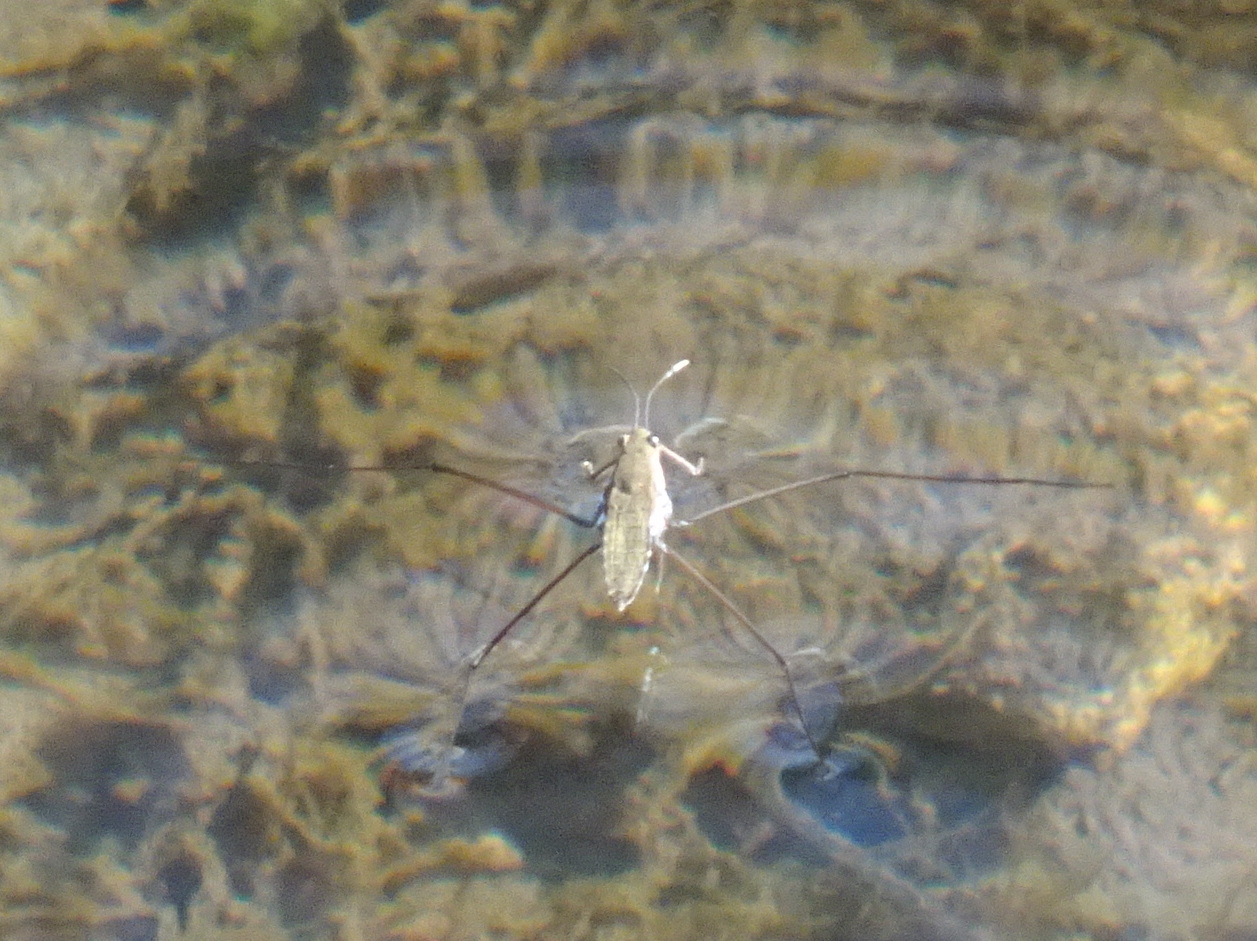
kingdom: Animalia
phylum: Arthropoda
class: Insecta
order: Hemiptera
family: Gerridae
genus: Aquarius
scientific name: Aquarius remigis
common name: Common water strider
